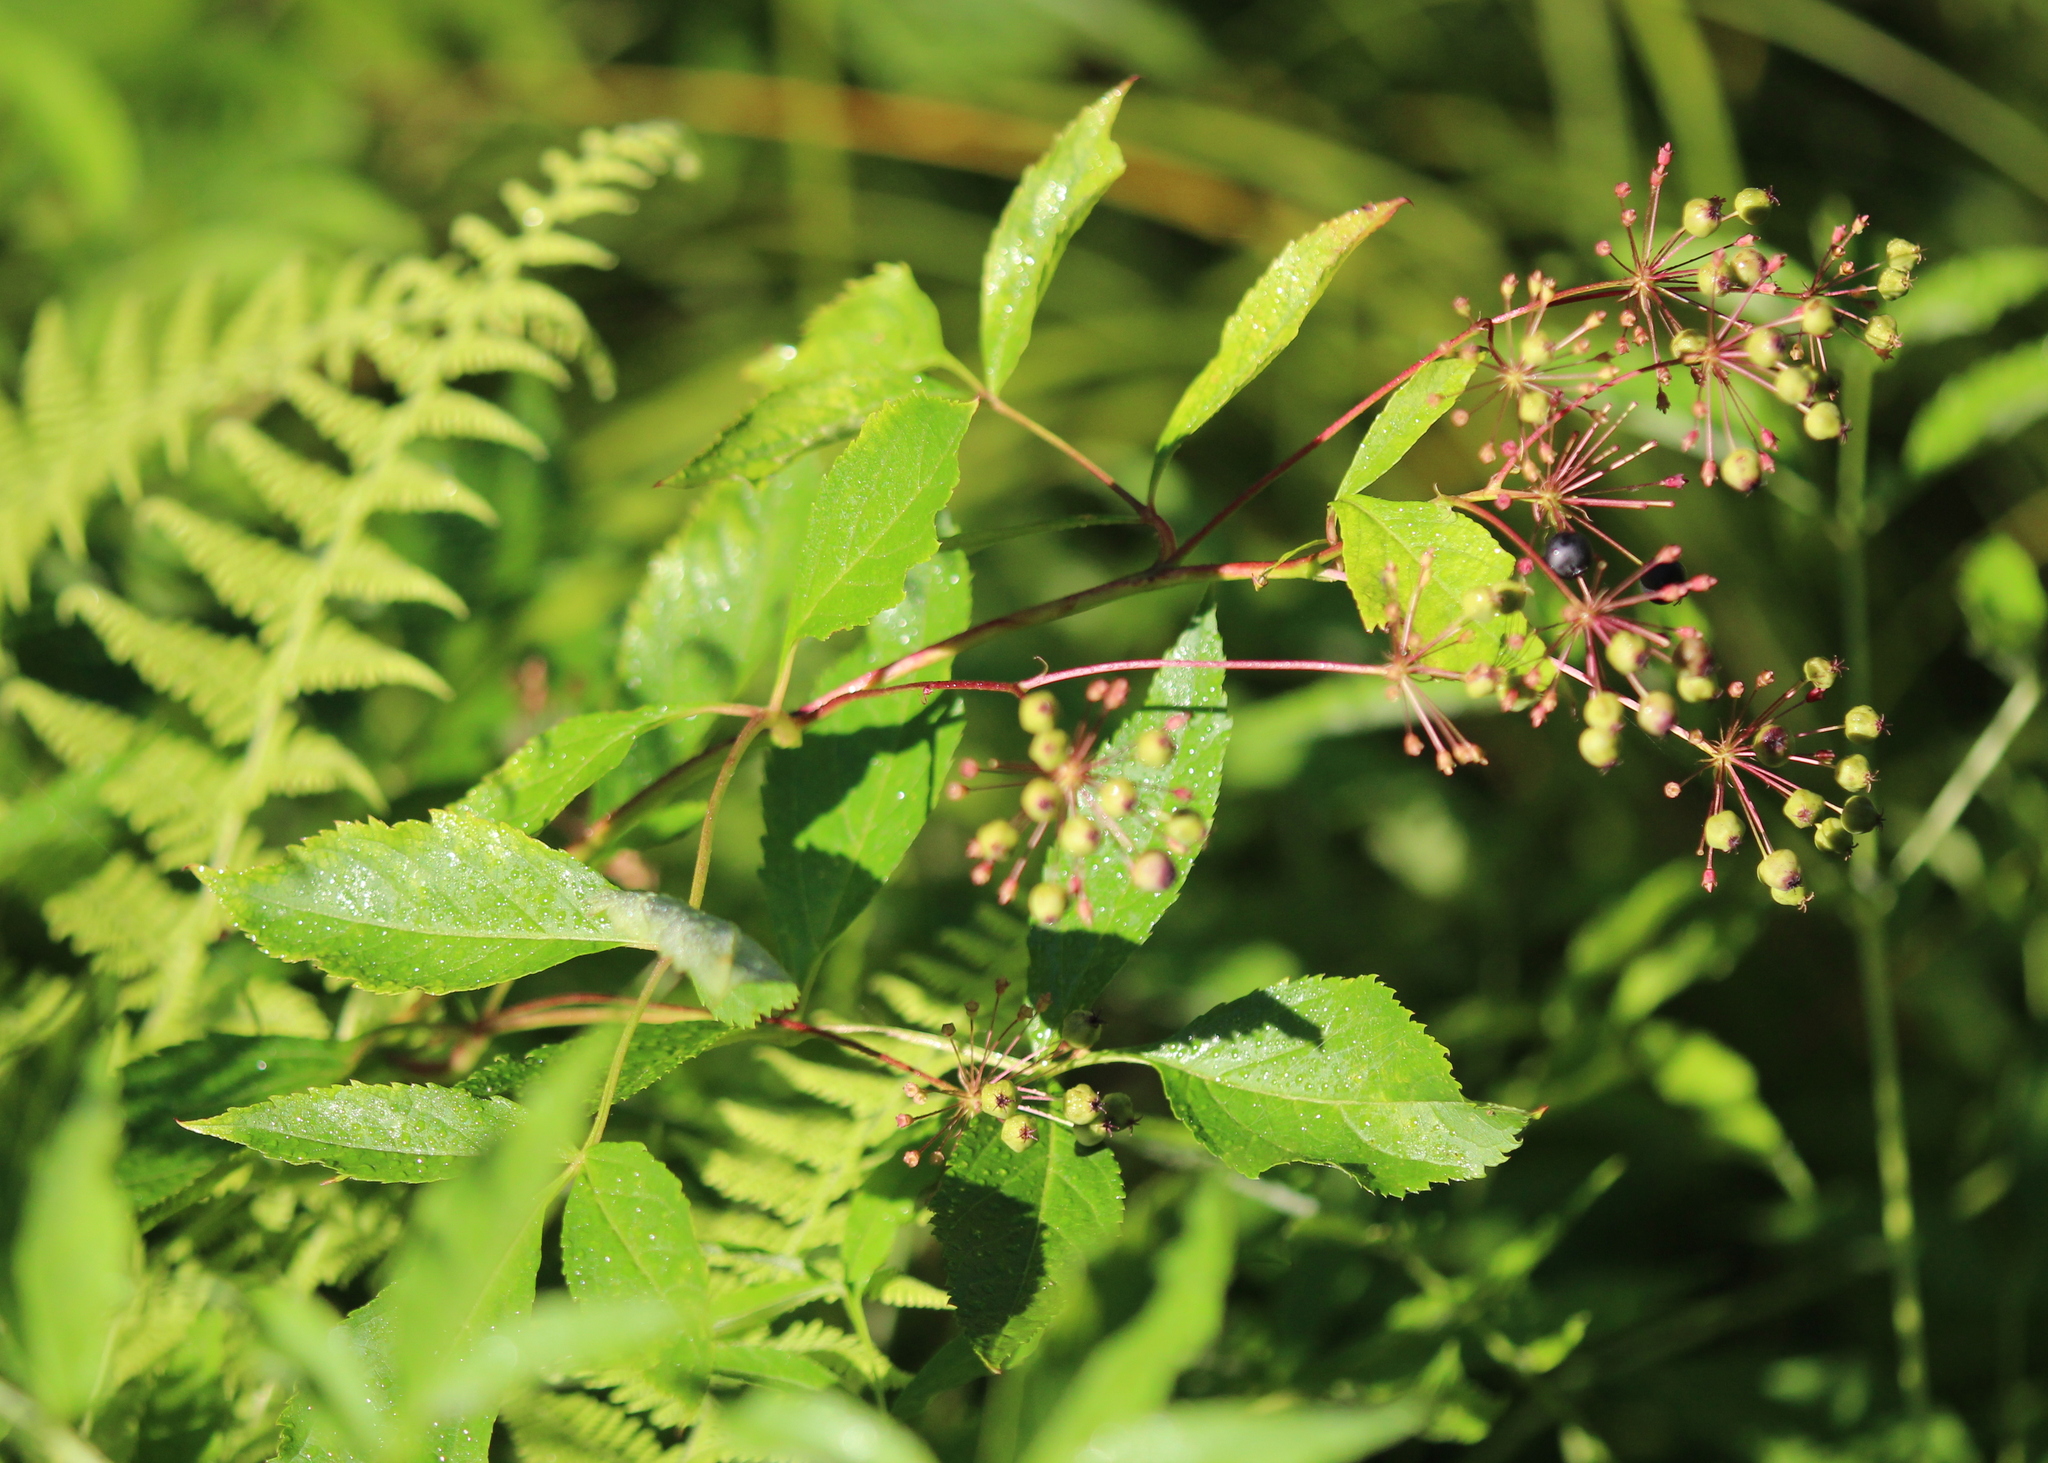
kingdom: Plantae
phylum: Tracheophyta
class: Magnoliopsida
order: Apiales
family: Araliaceae
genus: Aralia
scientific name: Aralia hispida
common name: Bristly sarsaparilla
